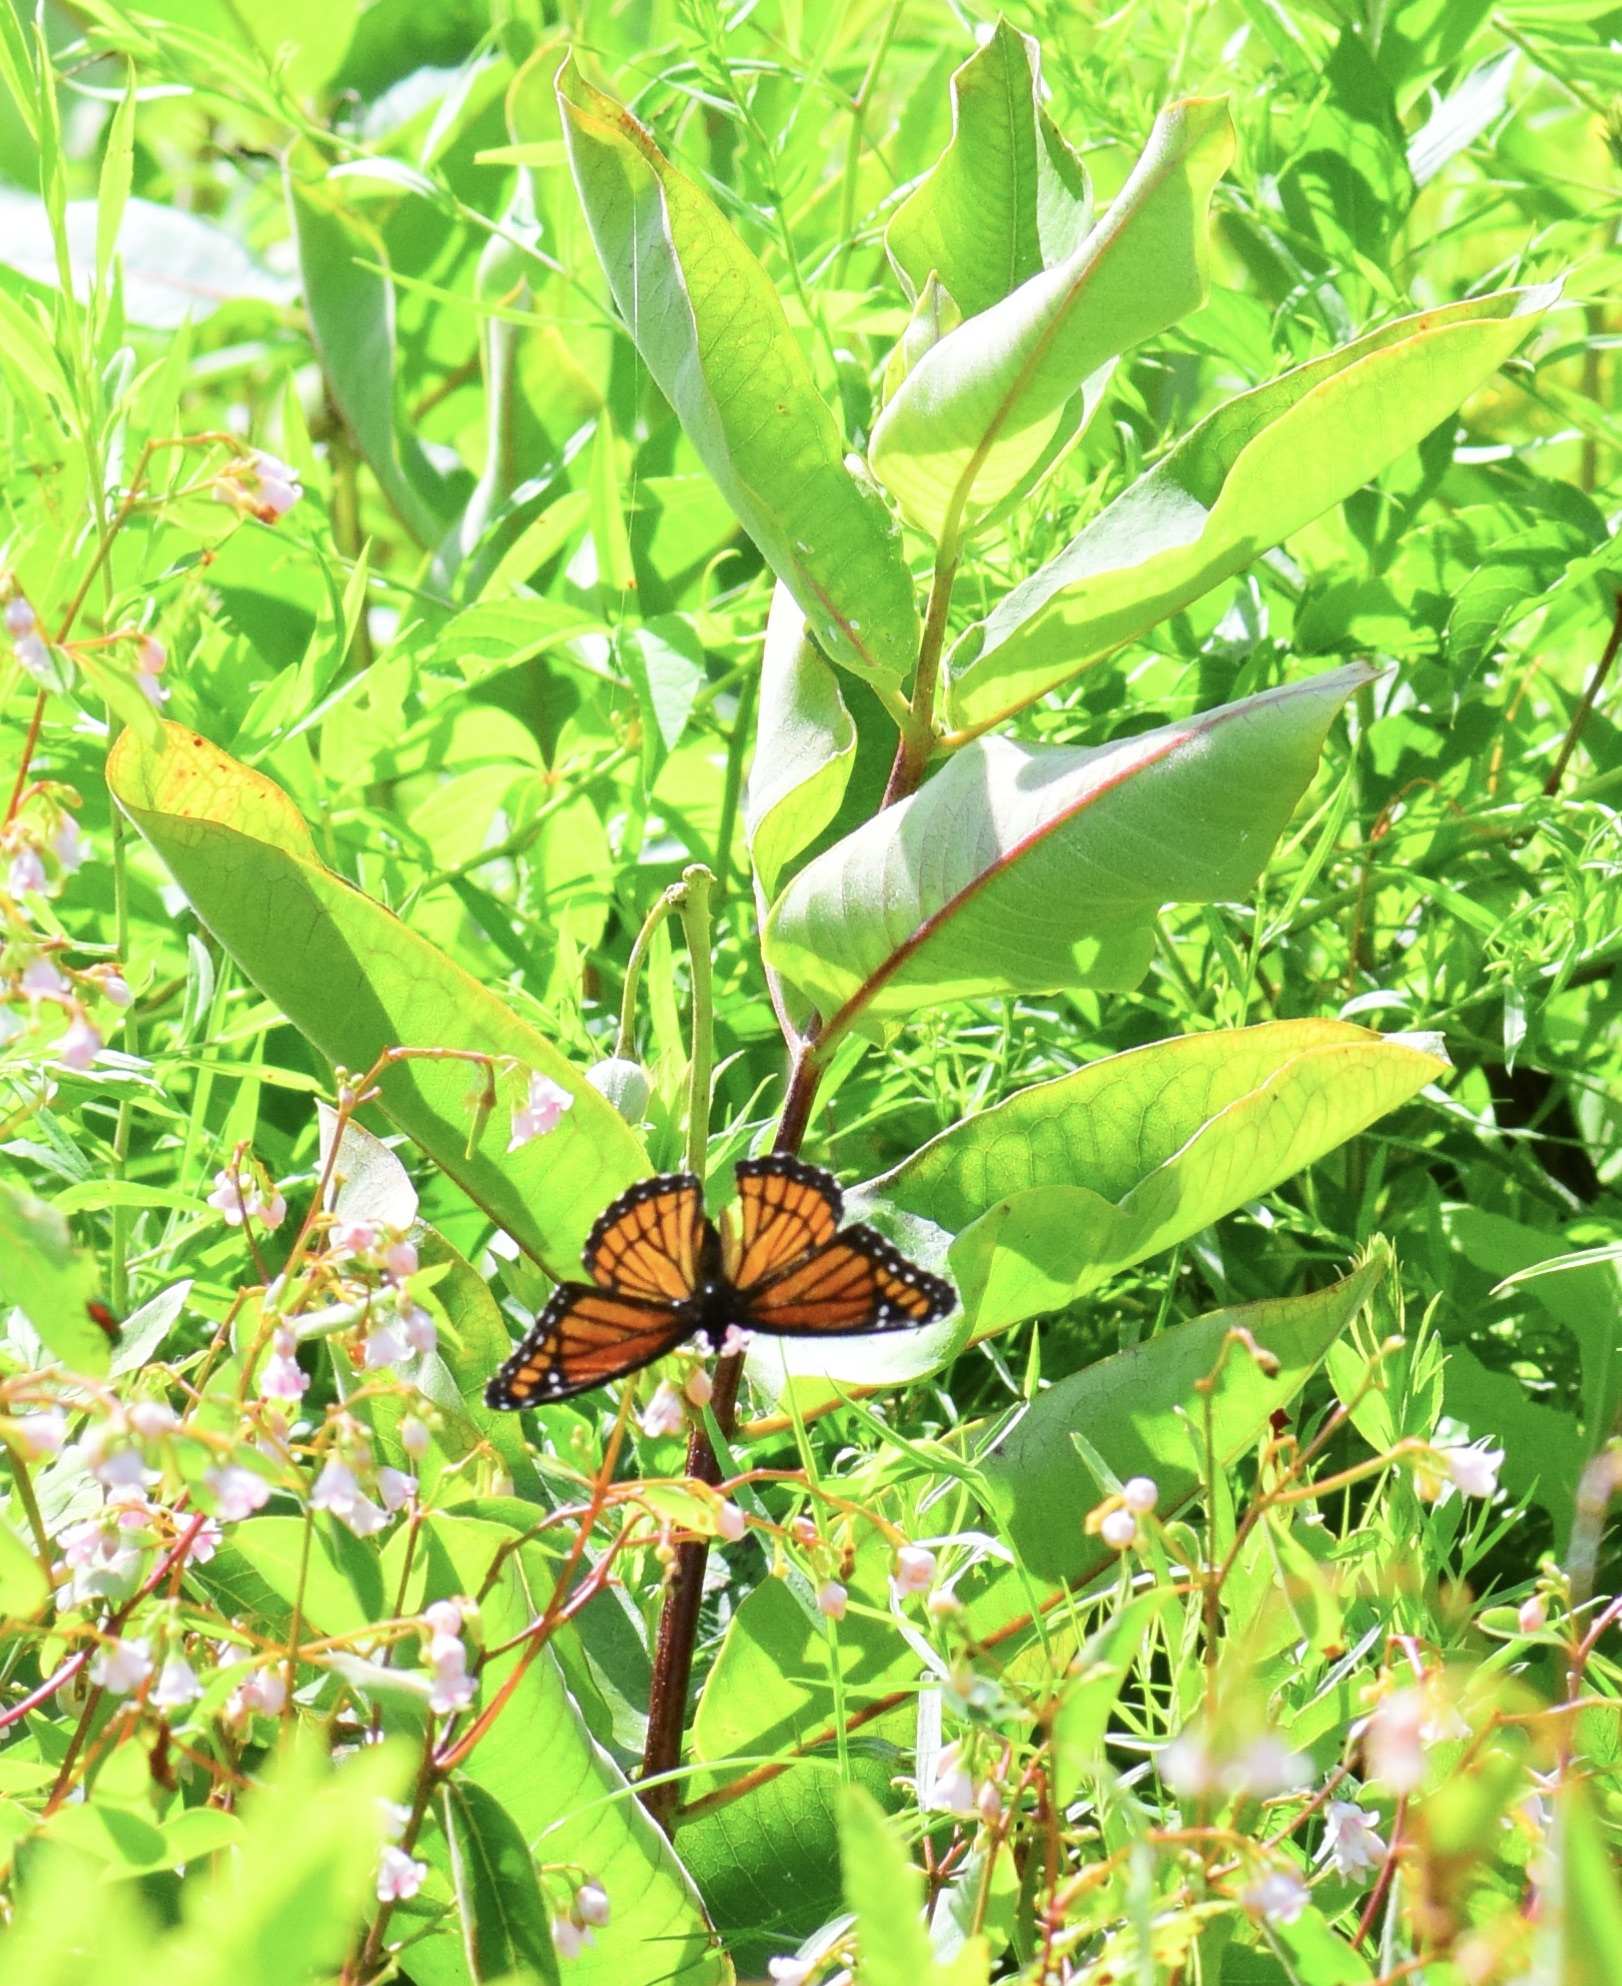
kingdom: Animalia
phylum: Arthropoda
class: Insecta
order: Lepidoptera
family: Nymphalidae
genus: Limenitis
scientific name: Limenitis archippus
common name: Viceroy
